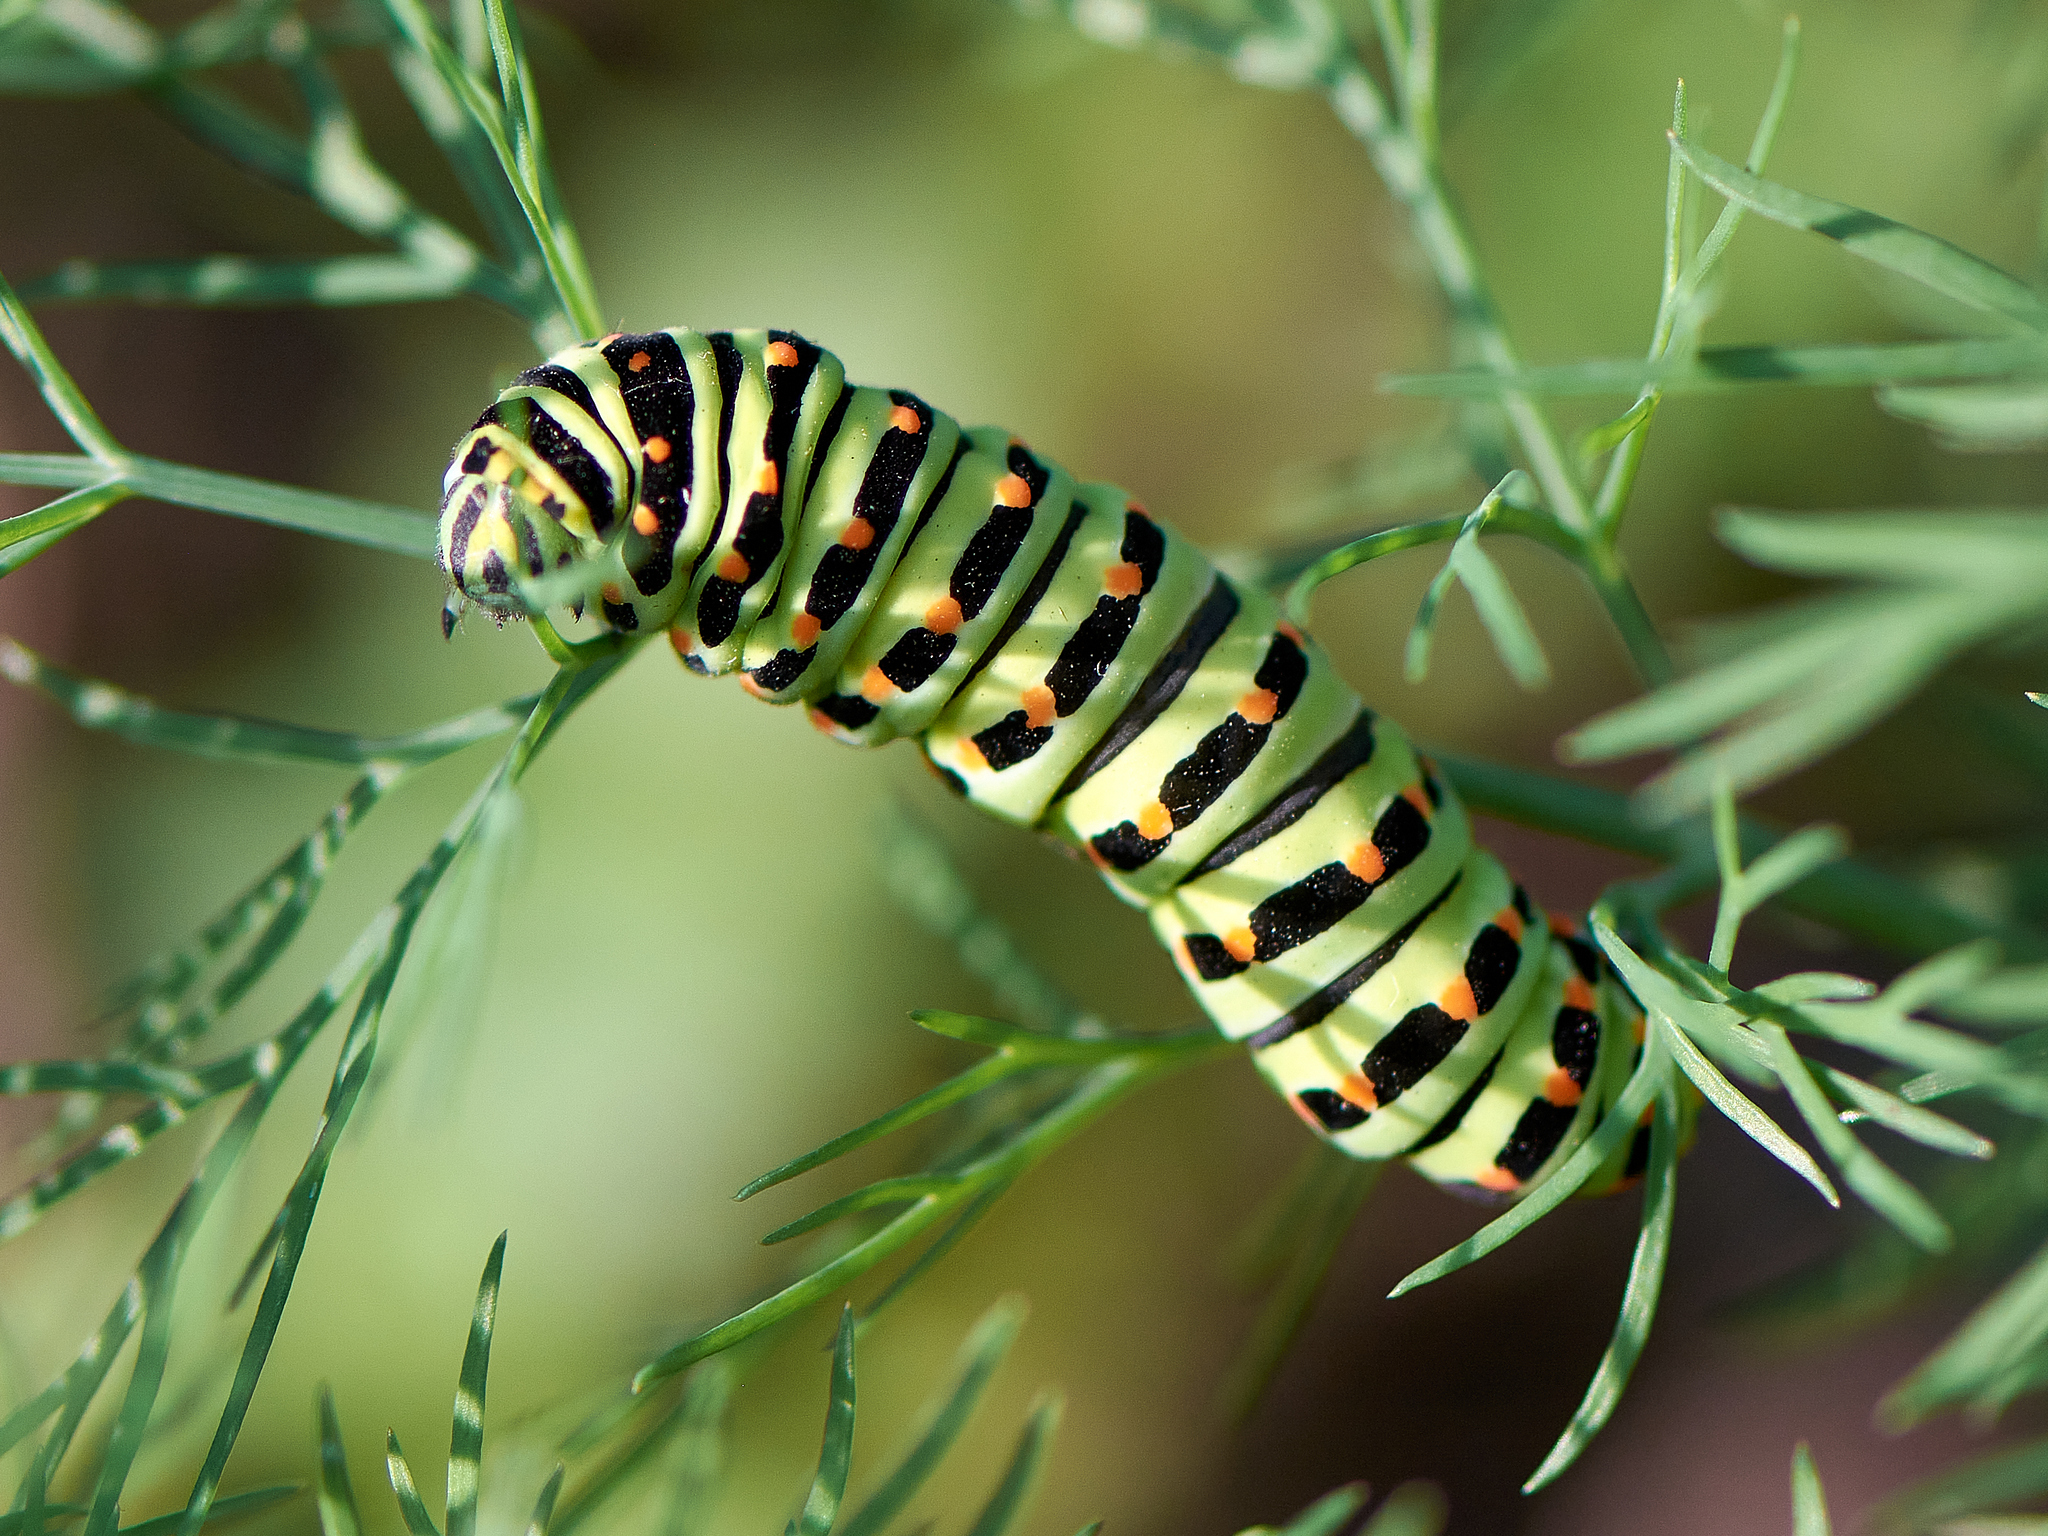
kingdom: Animalia
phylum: Arthropoda
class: Insecta
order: Lepidoptera
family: Papilionidae
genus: Papilio
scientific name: Papilio machaon
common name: Swallowtail
